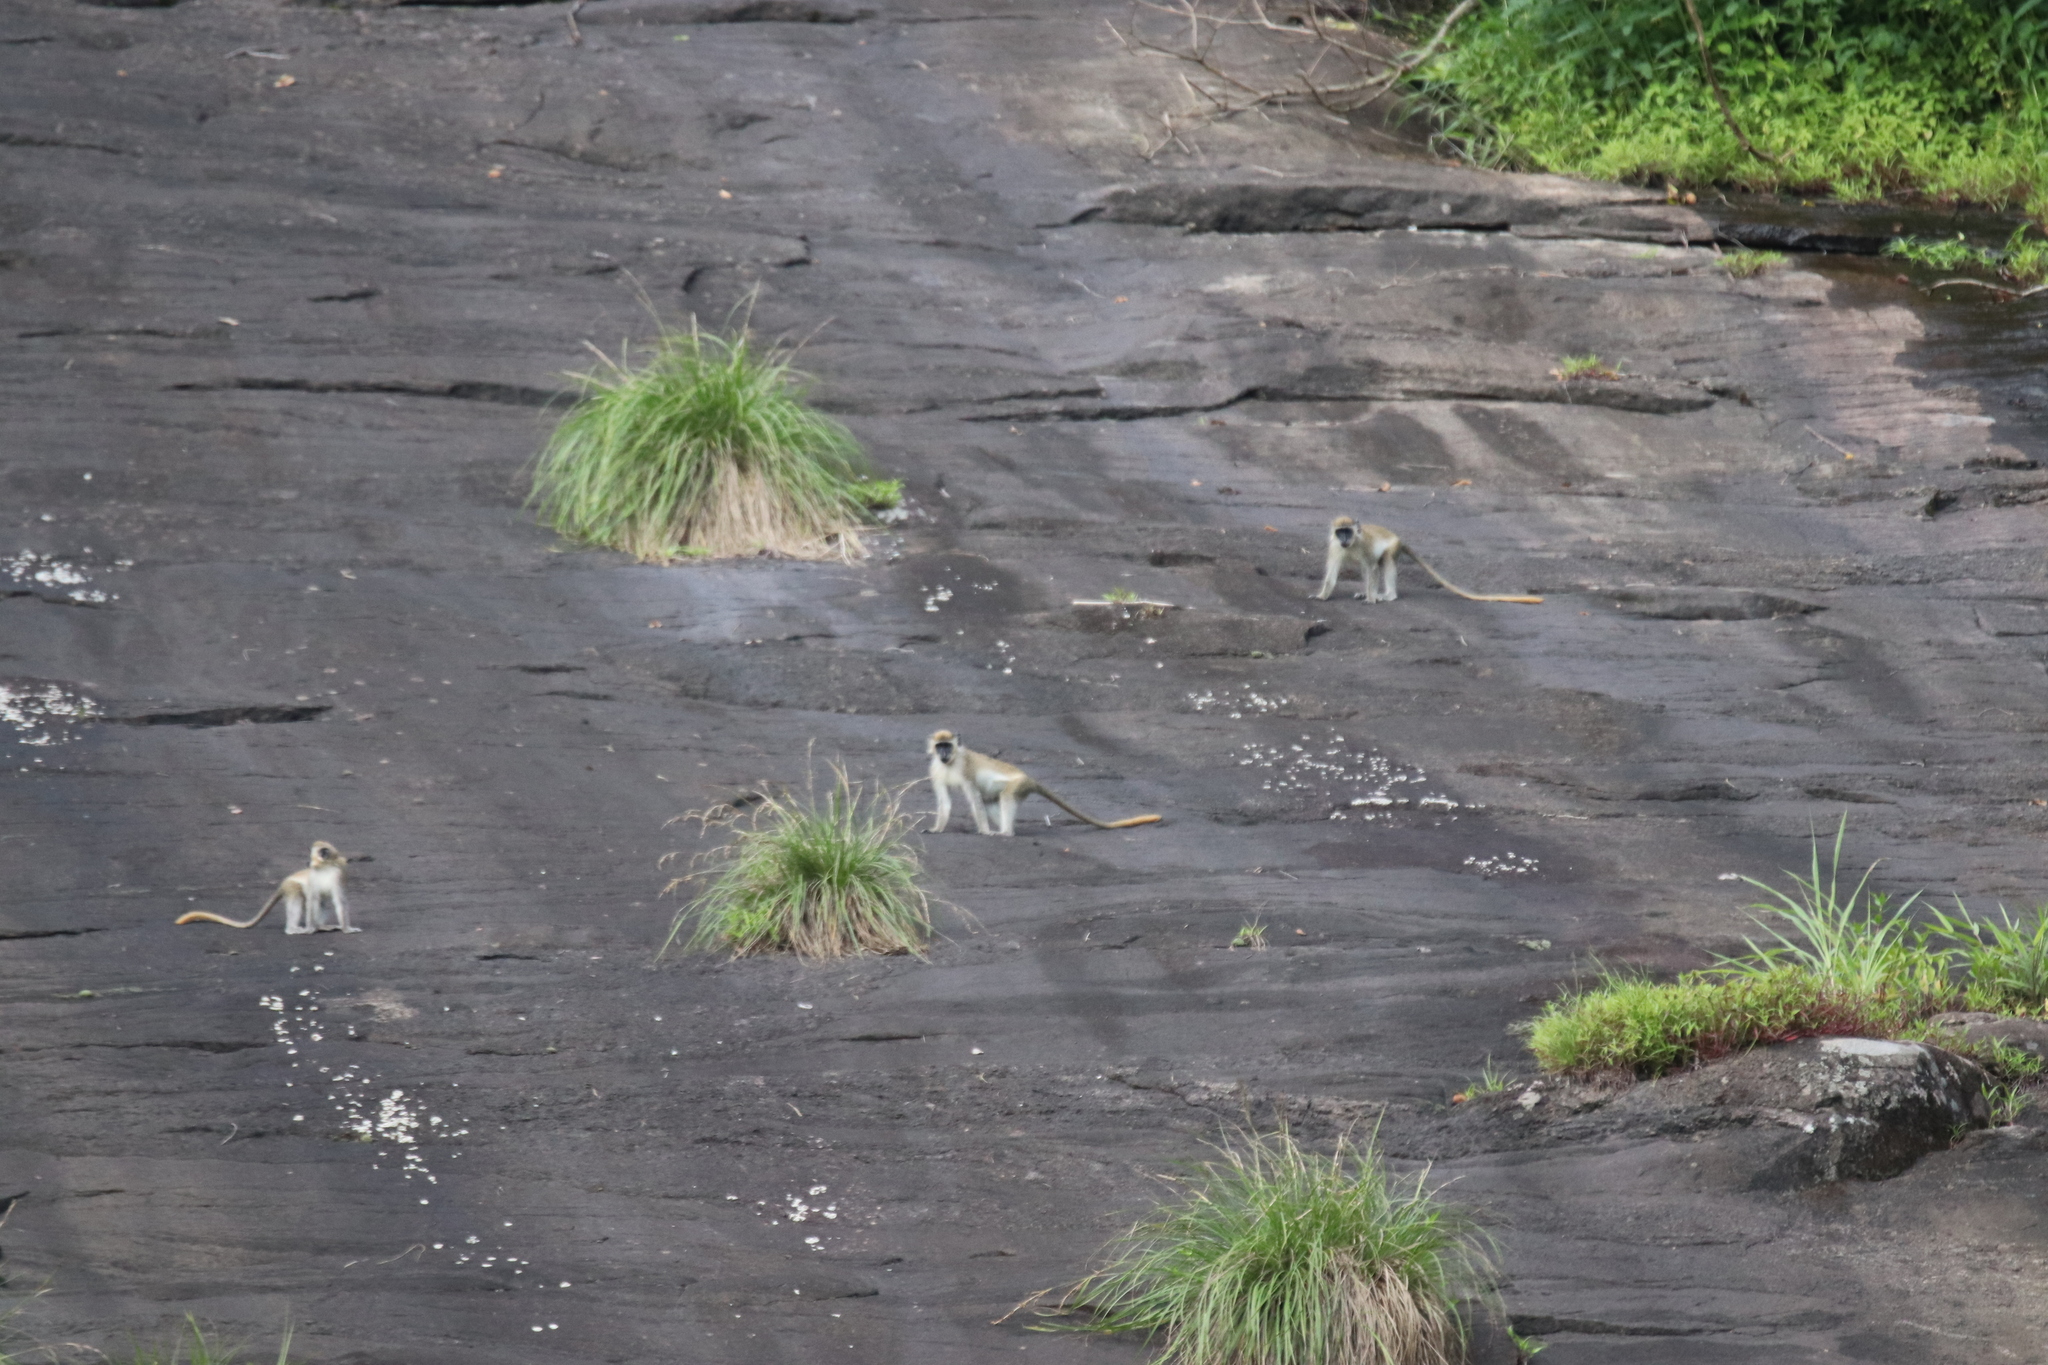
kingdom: Animalia
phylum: Chordata
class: Mammalia
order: Primates
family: Cercopithecidae
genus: Chlorocebus
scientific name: Chlorocebus sabaeus
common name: Green monkey
